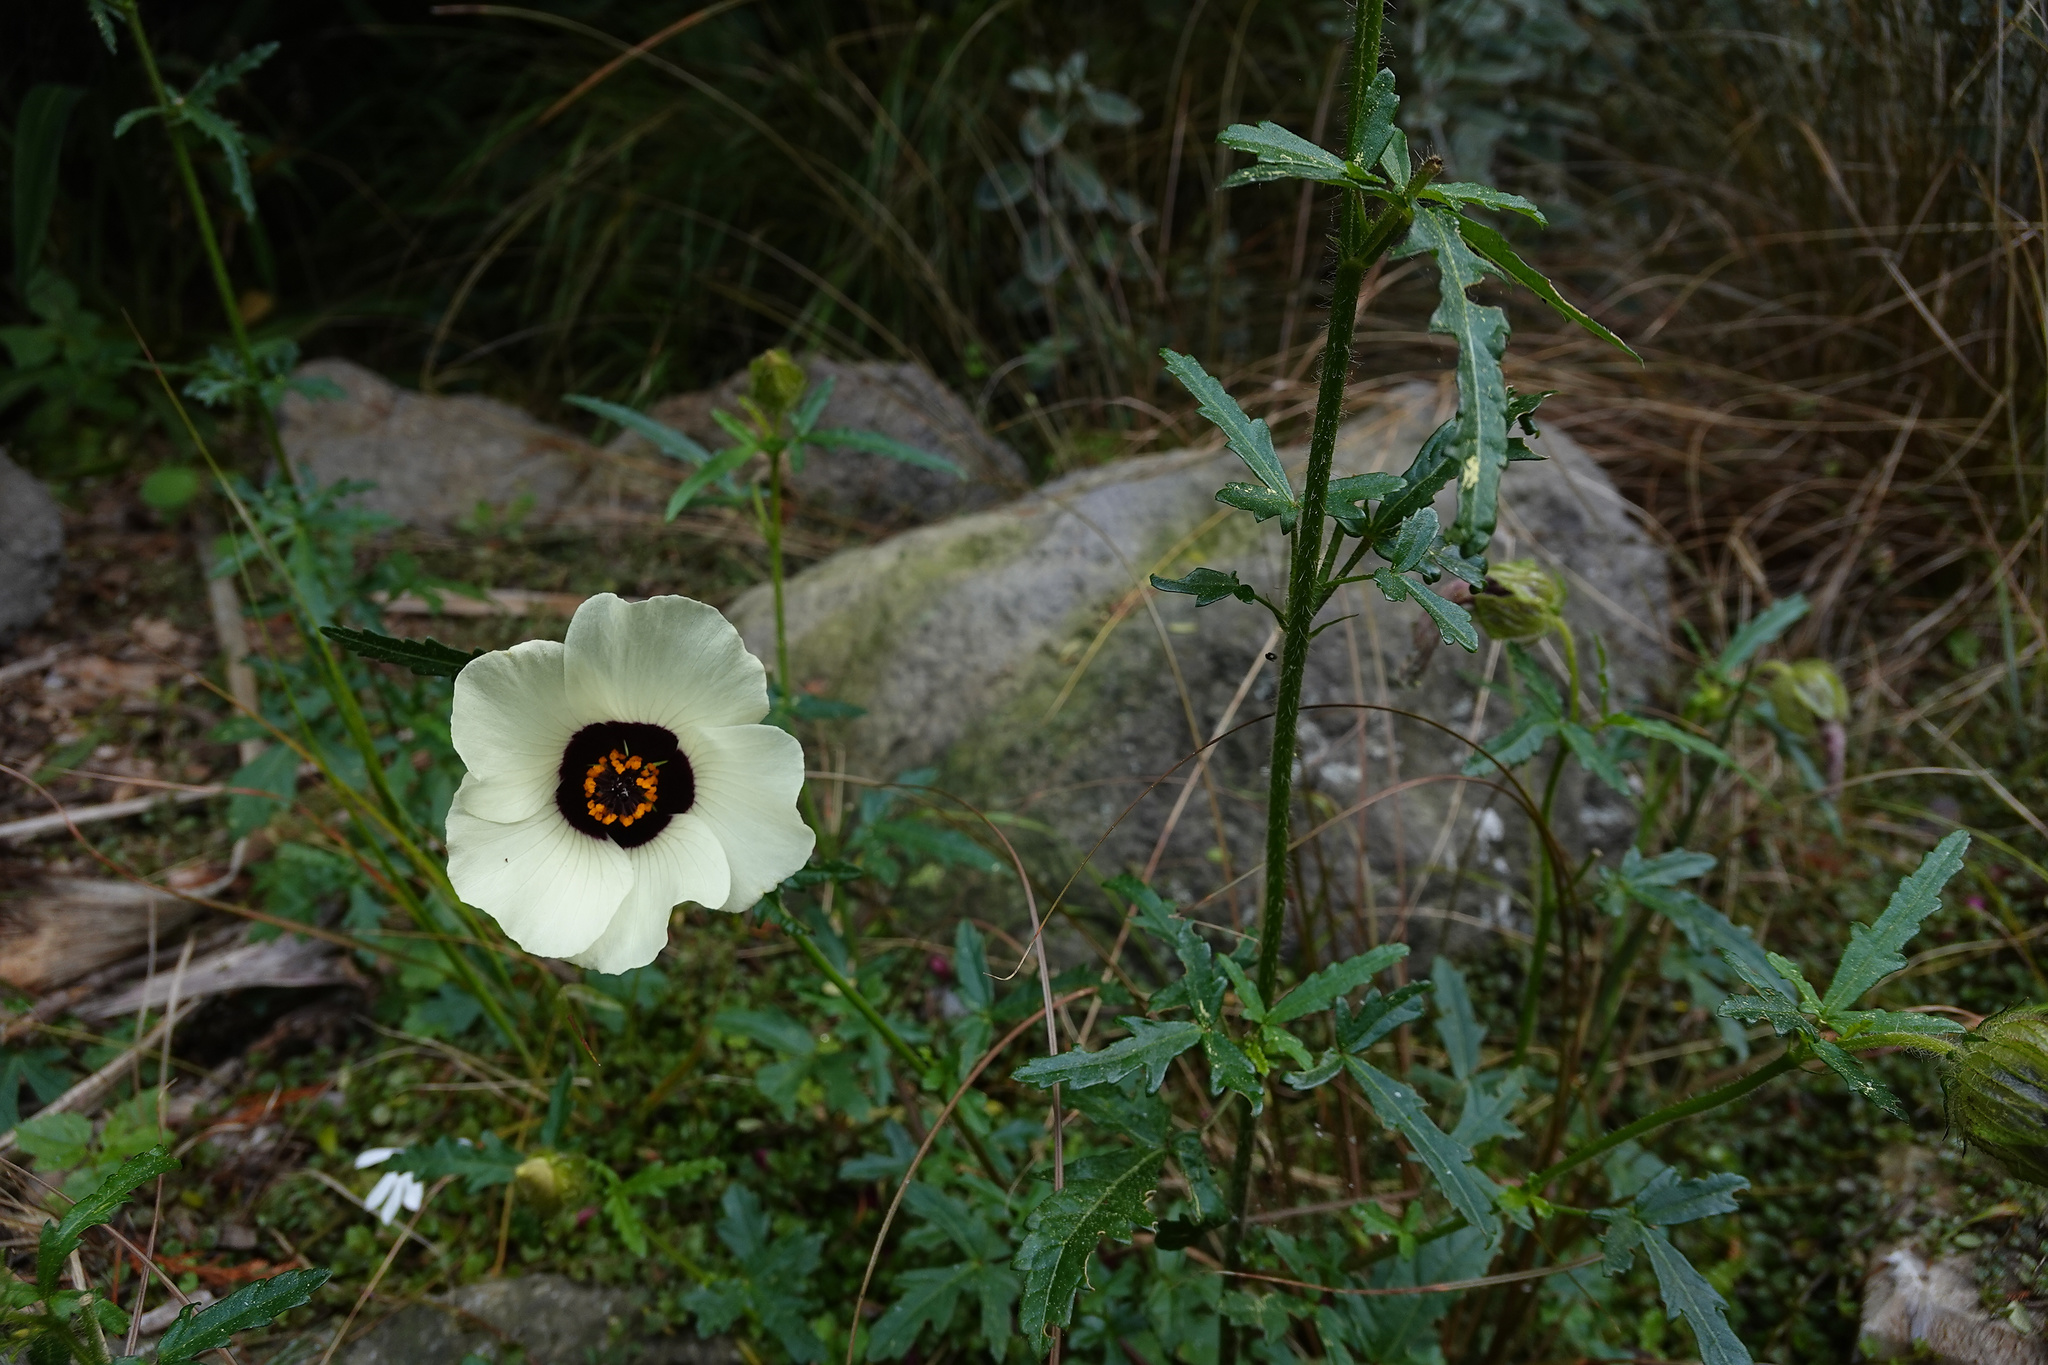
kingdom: Plantae
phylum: Tracheophyta
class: Magnoliopsida
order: Malvales
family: Malvaceae
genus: Hibiscus
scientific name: Hibiscus trionum
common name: Bladder ketmia
